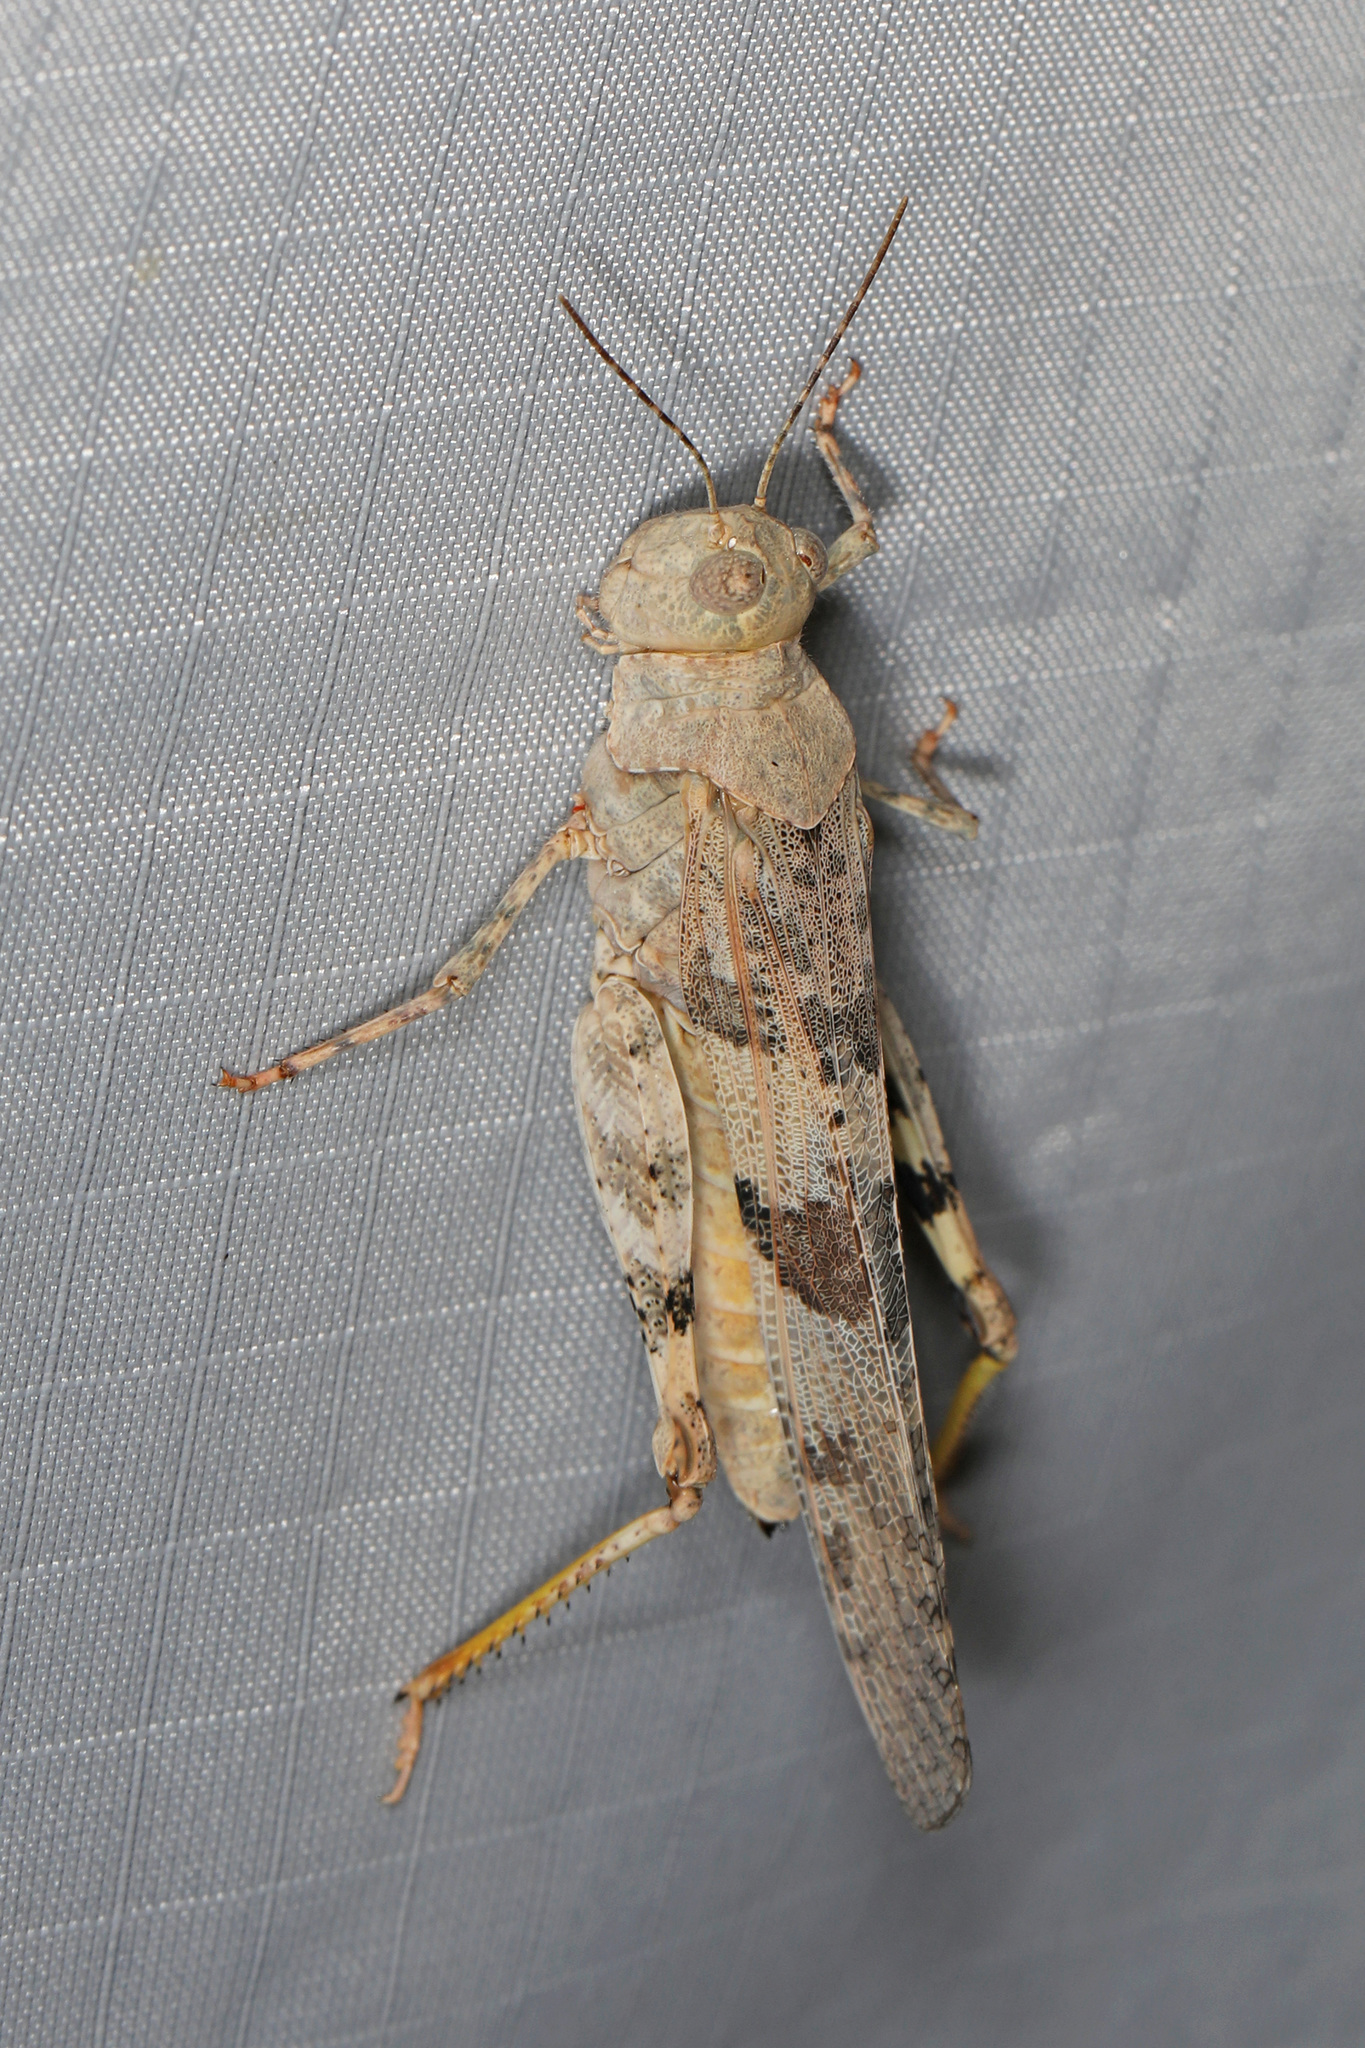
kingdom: Animalia
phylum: Arthropoda
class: Insecta
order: Orthoptera
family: Acrididae
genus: Trimerotropis
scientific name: Trimerotropis pallidipennis
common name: Pallid-winged grasshopper
